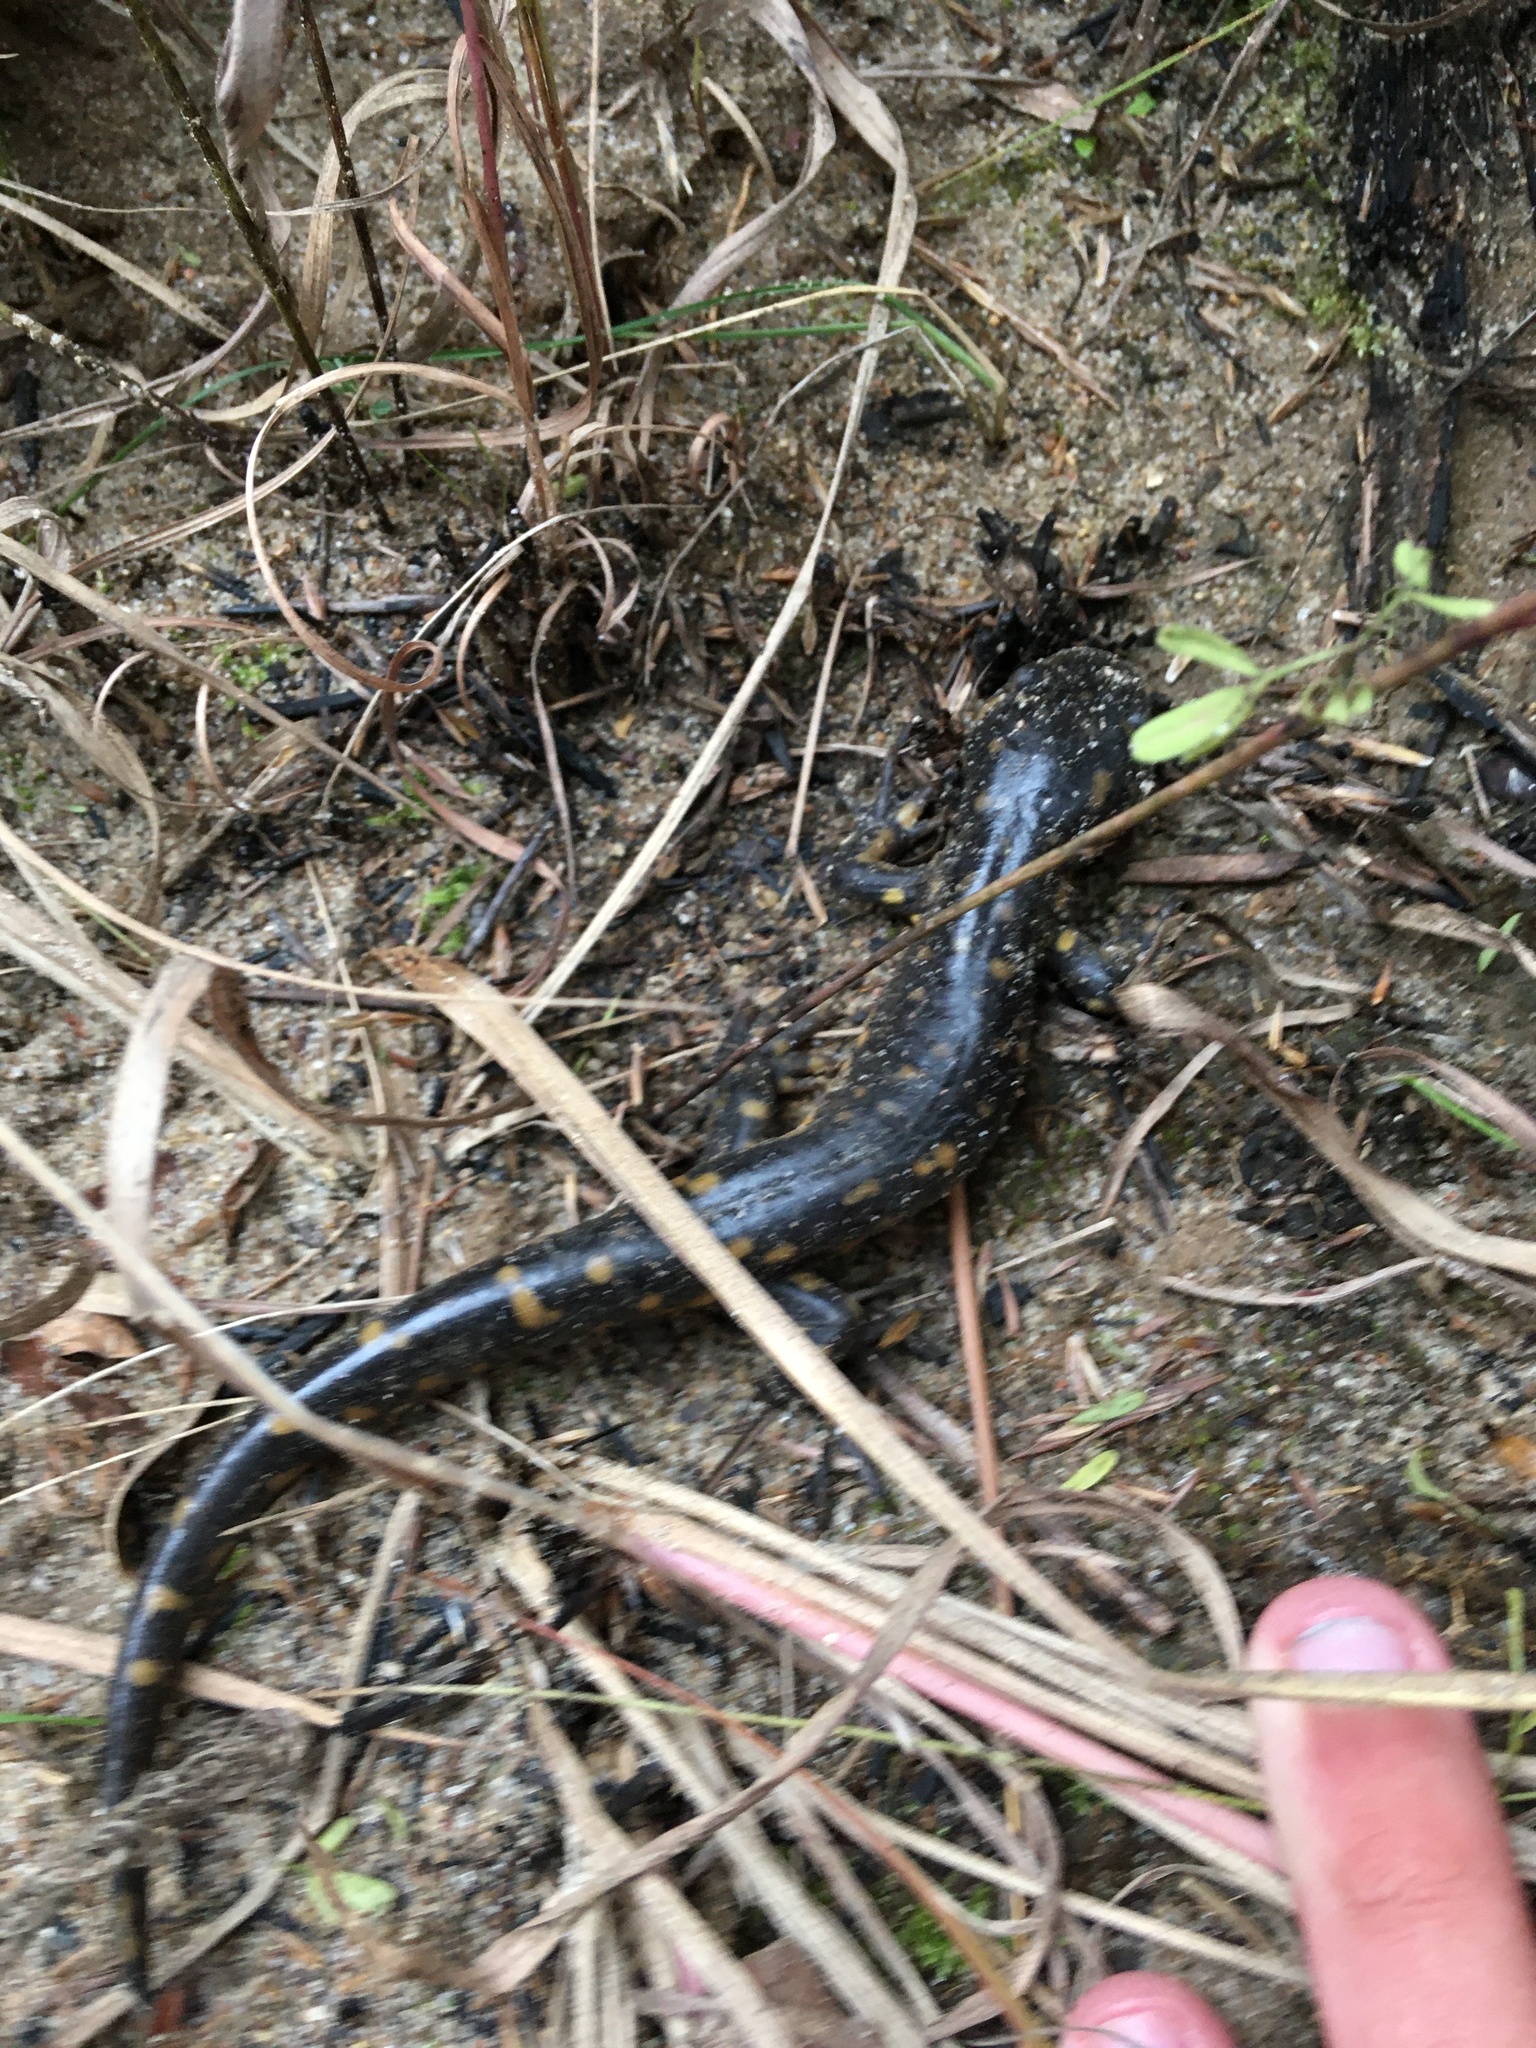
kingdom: Animalia
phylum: Chordata
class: Amphibia
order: Caudata
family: Ambystomatidae
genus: Ambystoma
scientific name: Ambystoma tigrinum
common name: Tiger salamander
